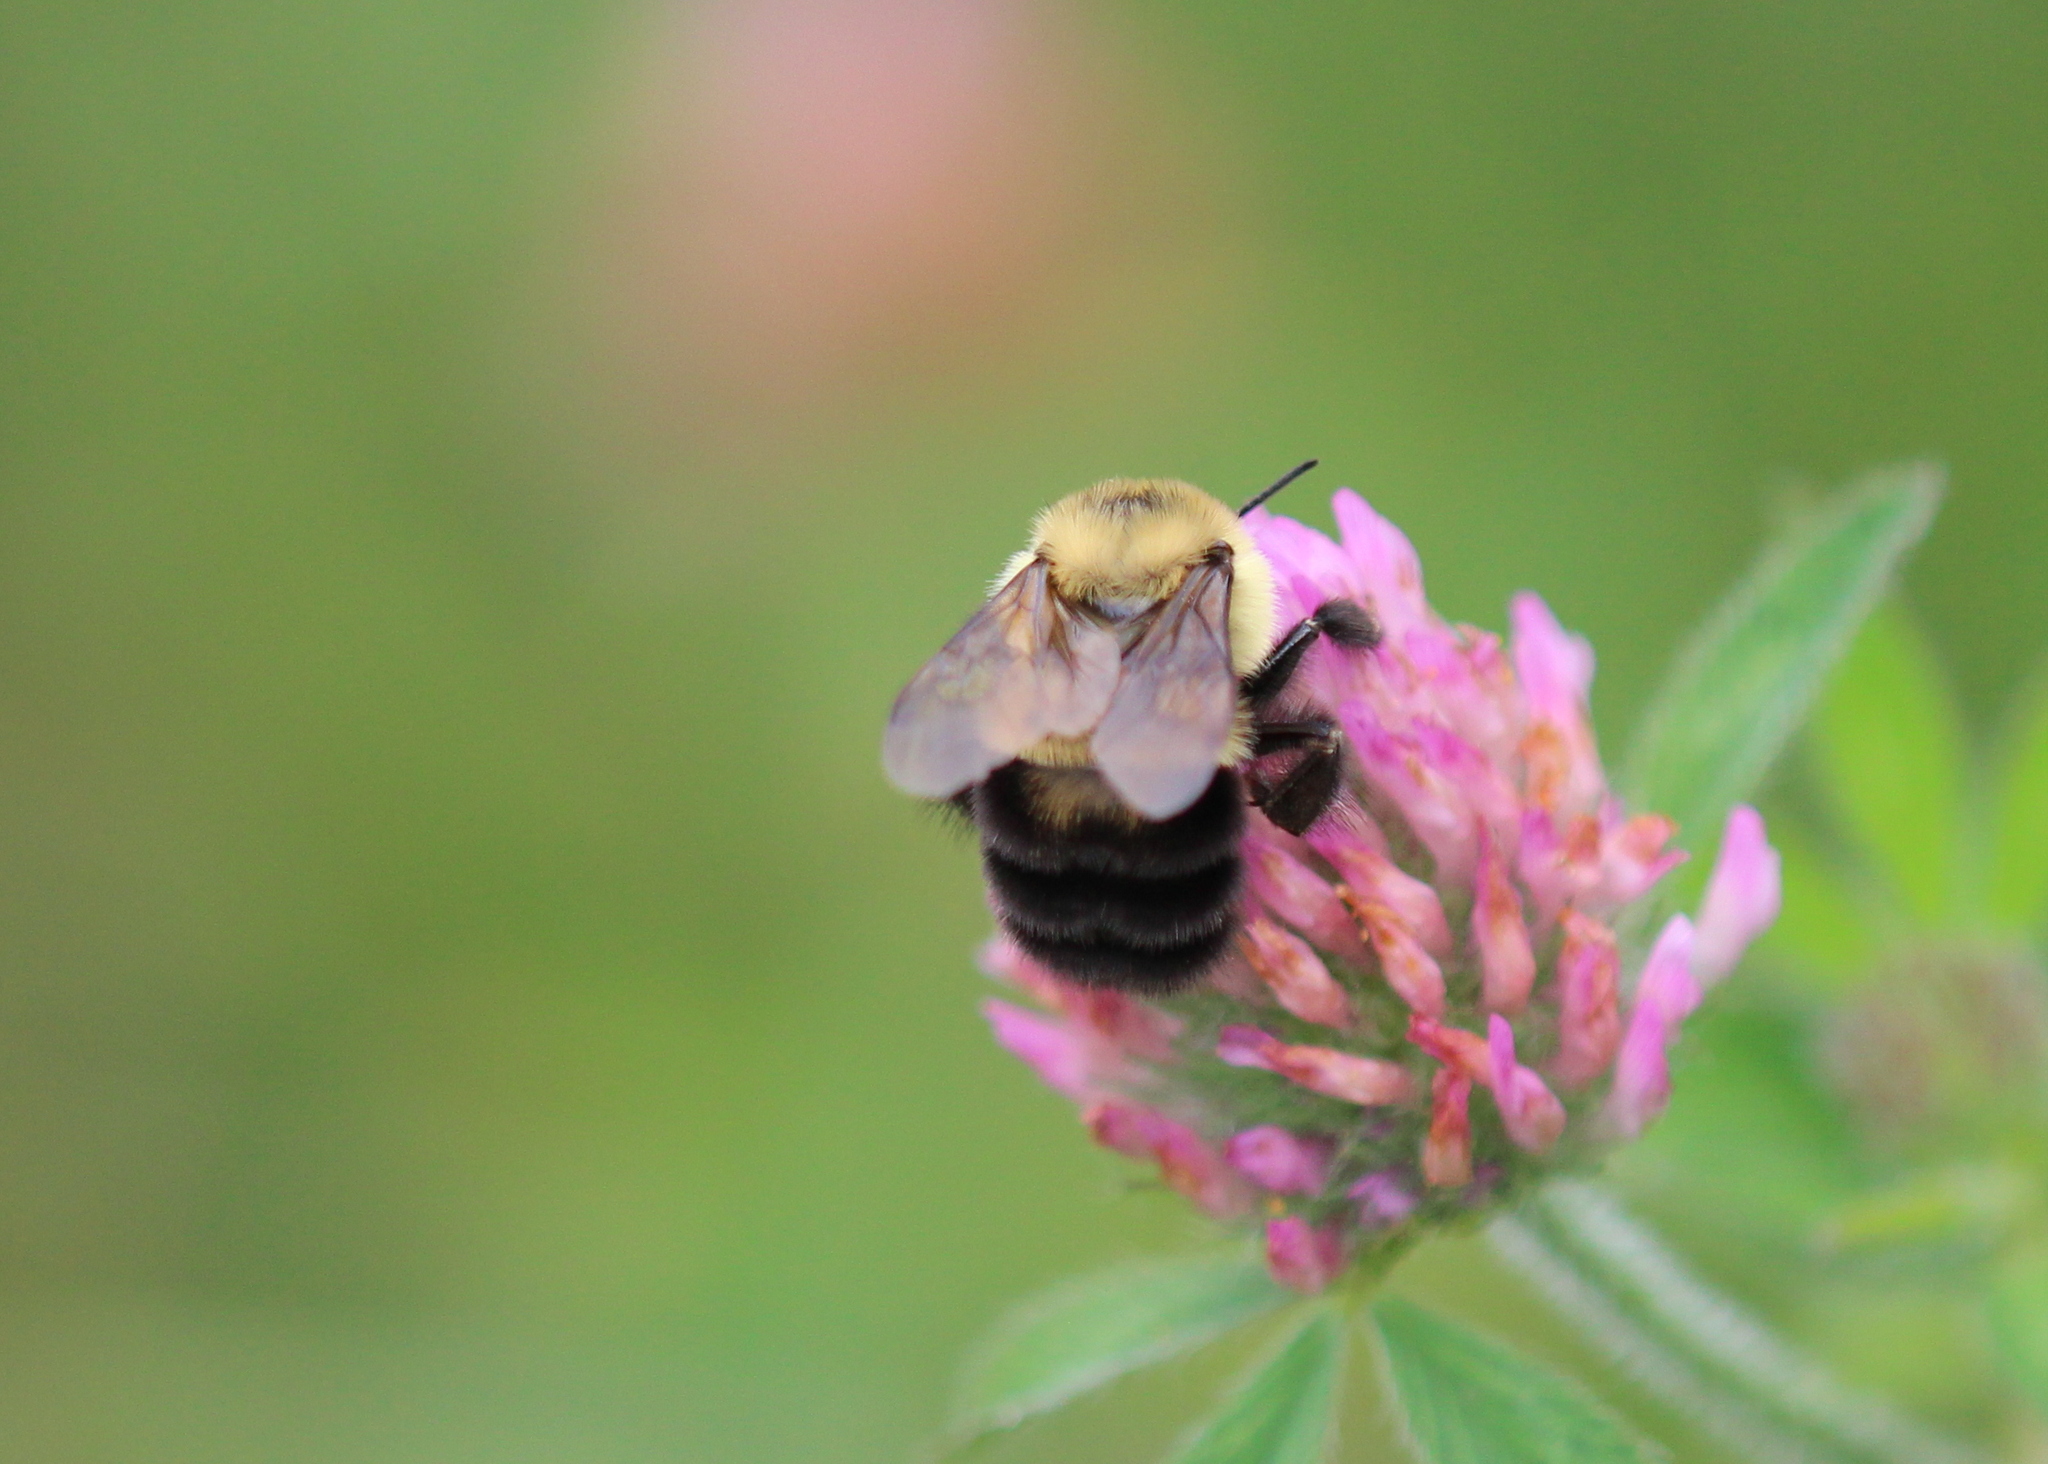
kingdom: Animalia
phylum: Arthropoda
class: Insecta
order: Hymenoptera
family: Apidae
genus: Bombus
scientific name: Bombus bimaculatus
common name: Two-spotted bumble bee
